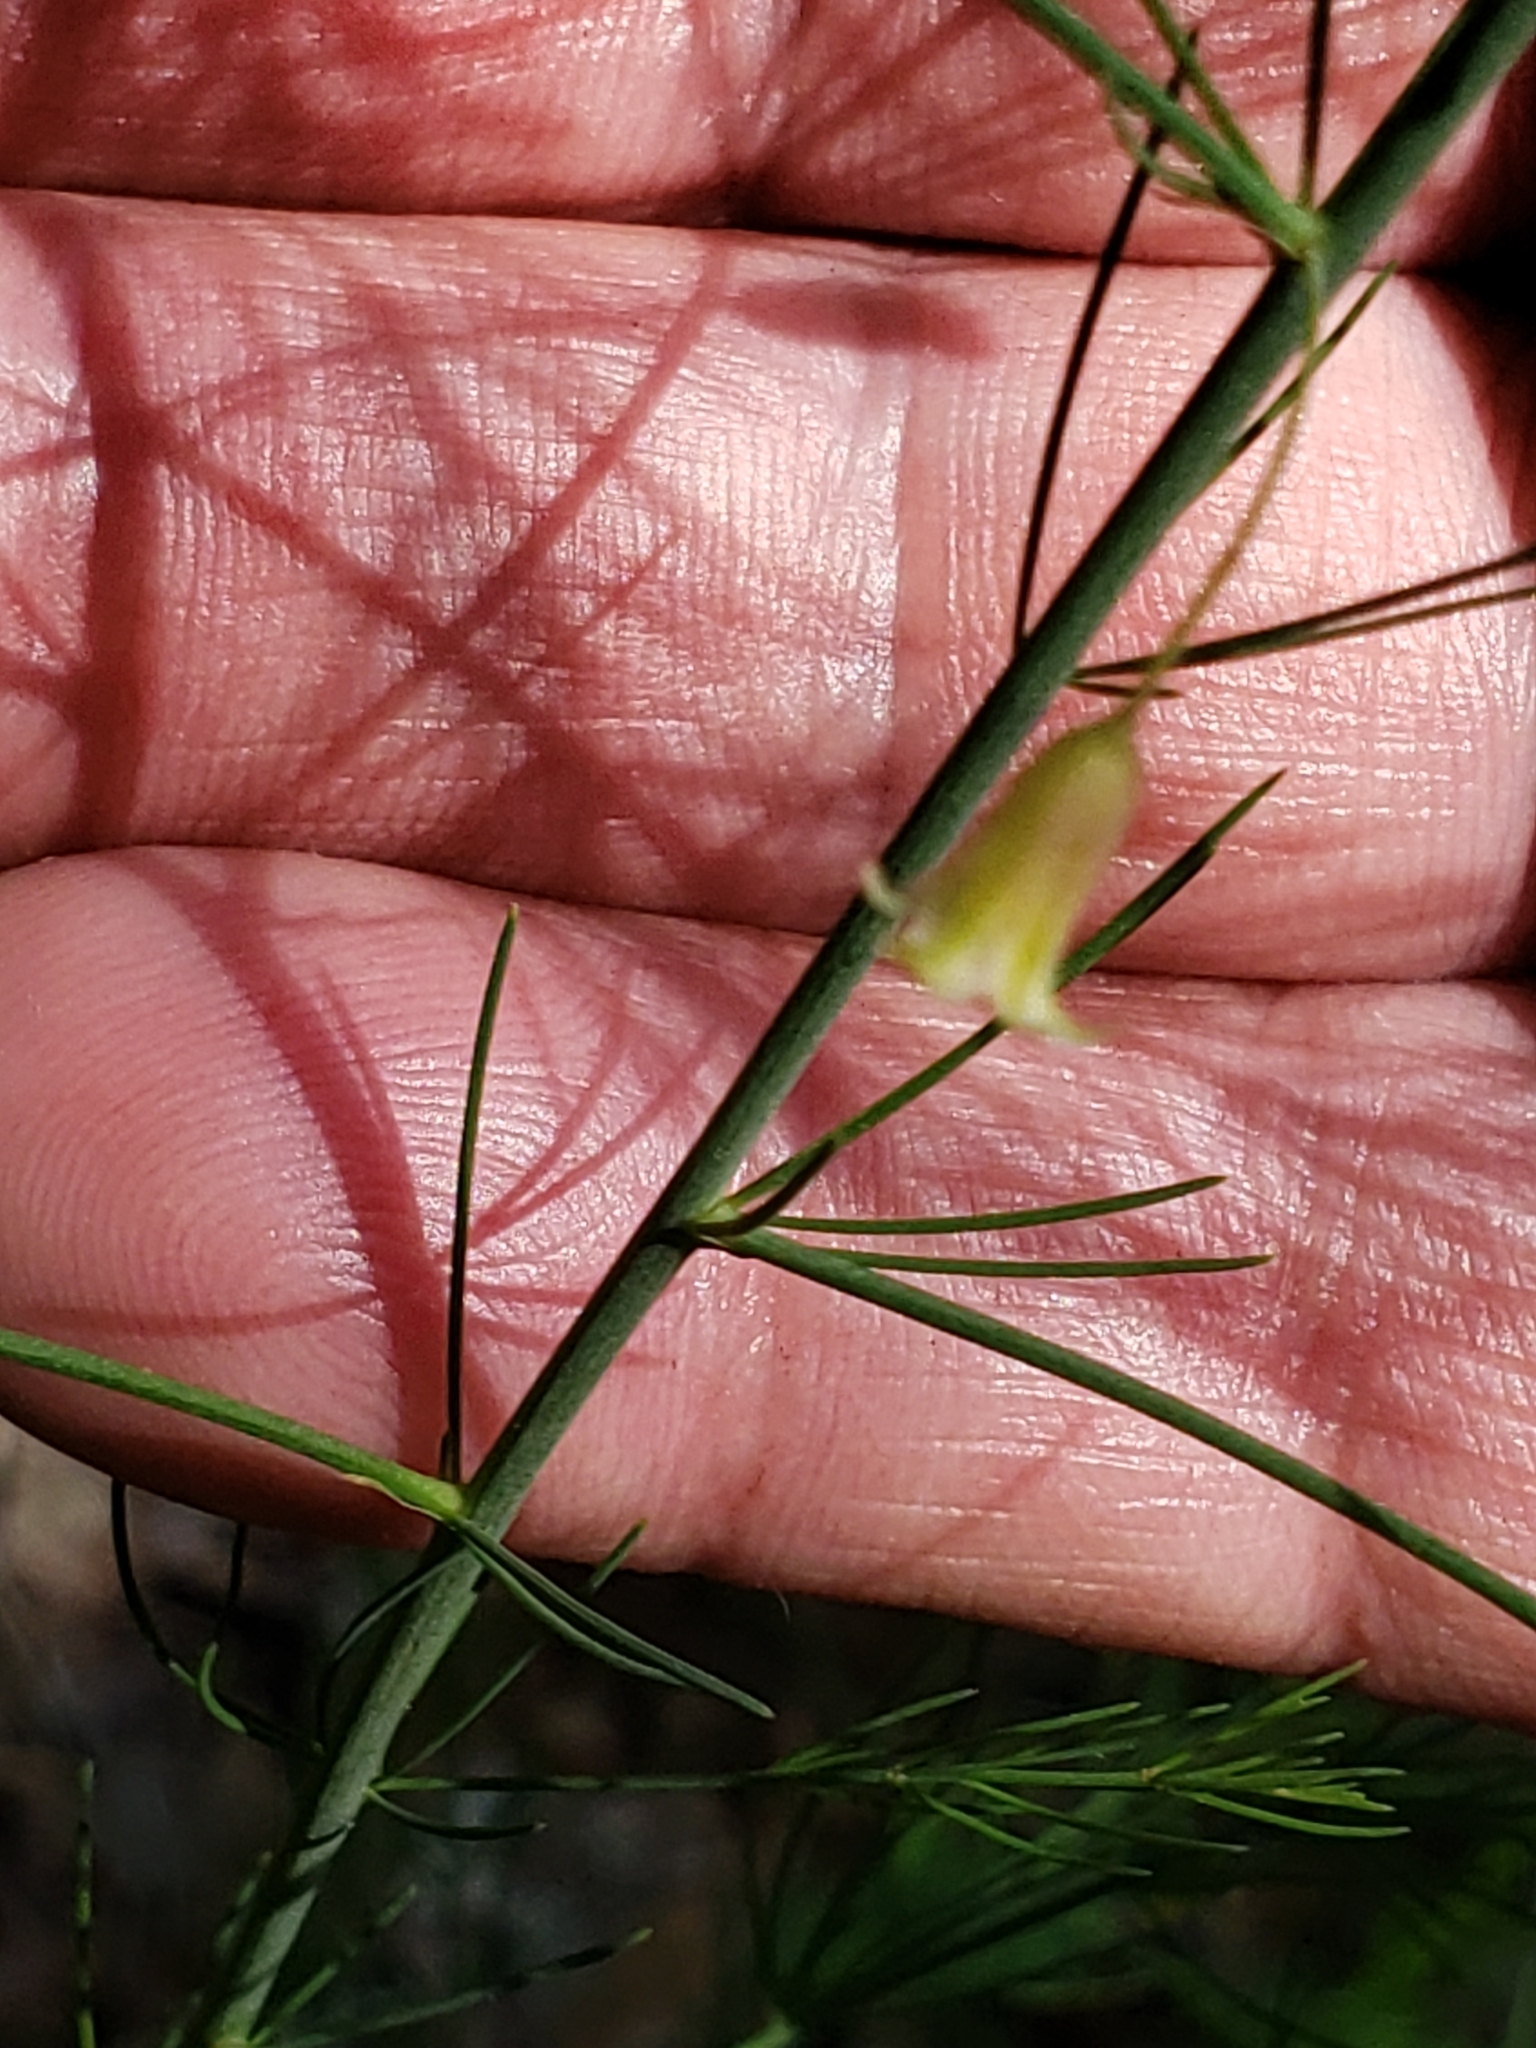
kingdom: Plantae
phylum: Tracheophyta
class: Liliopsida
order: Asparagales
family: Asparagaceae
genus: Asparagus
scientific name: Asparagus officinalis
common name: Garden asparagus
